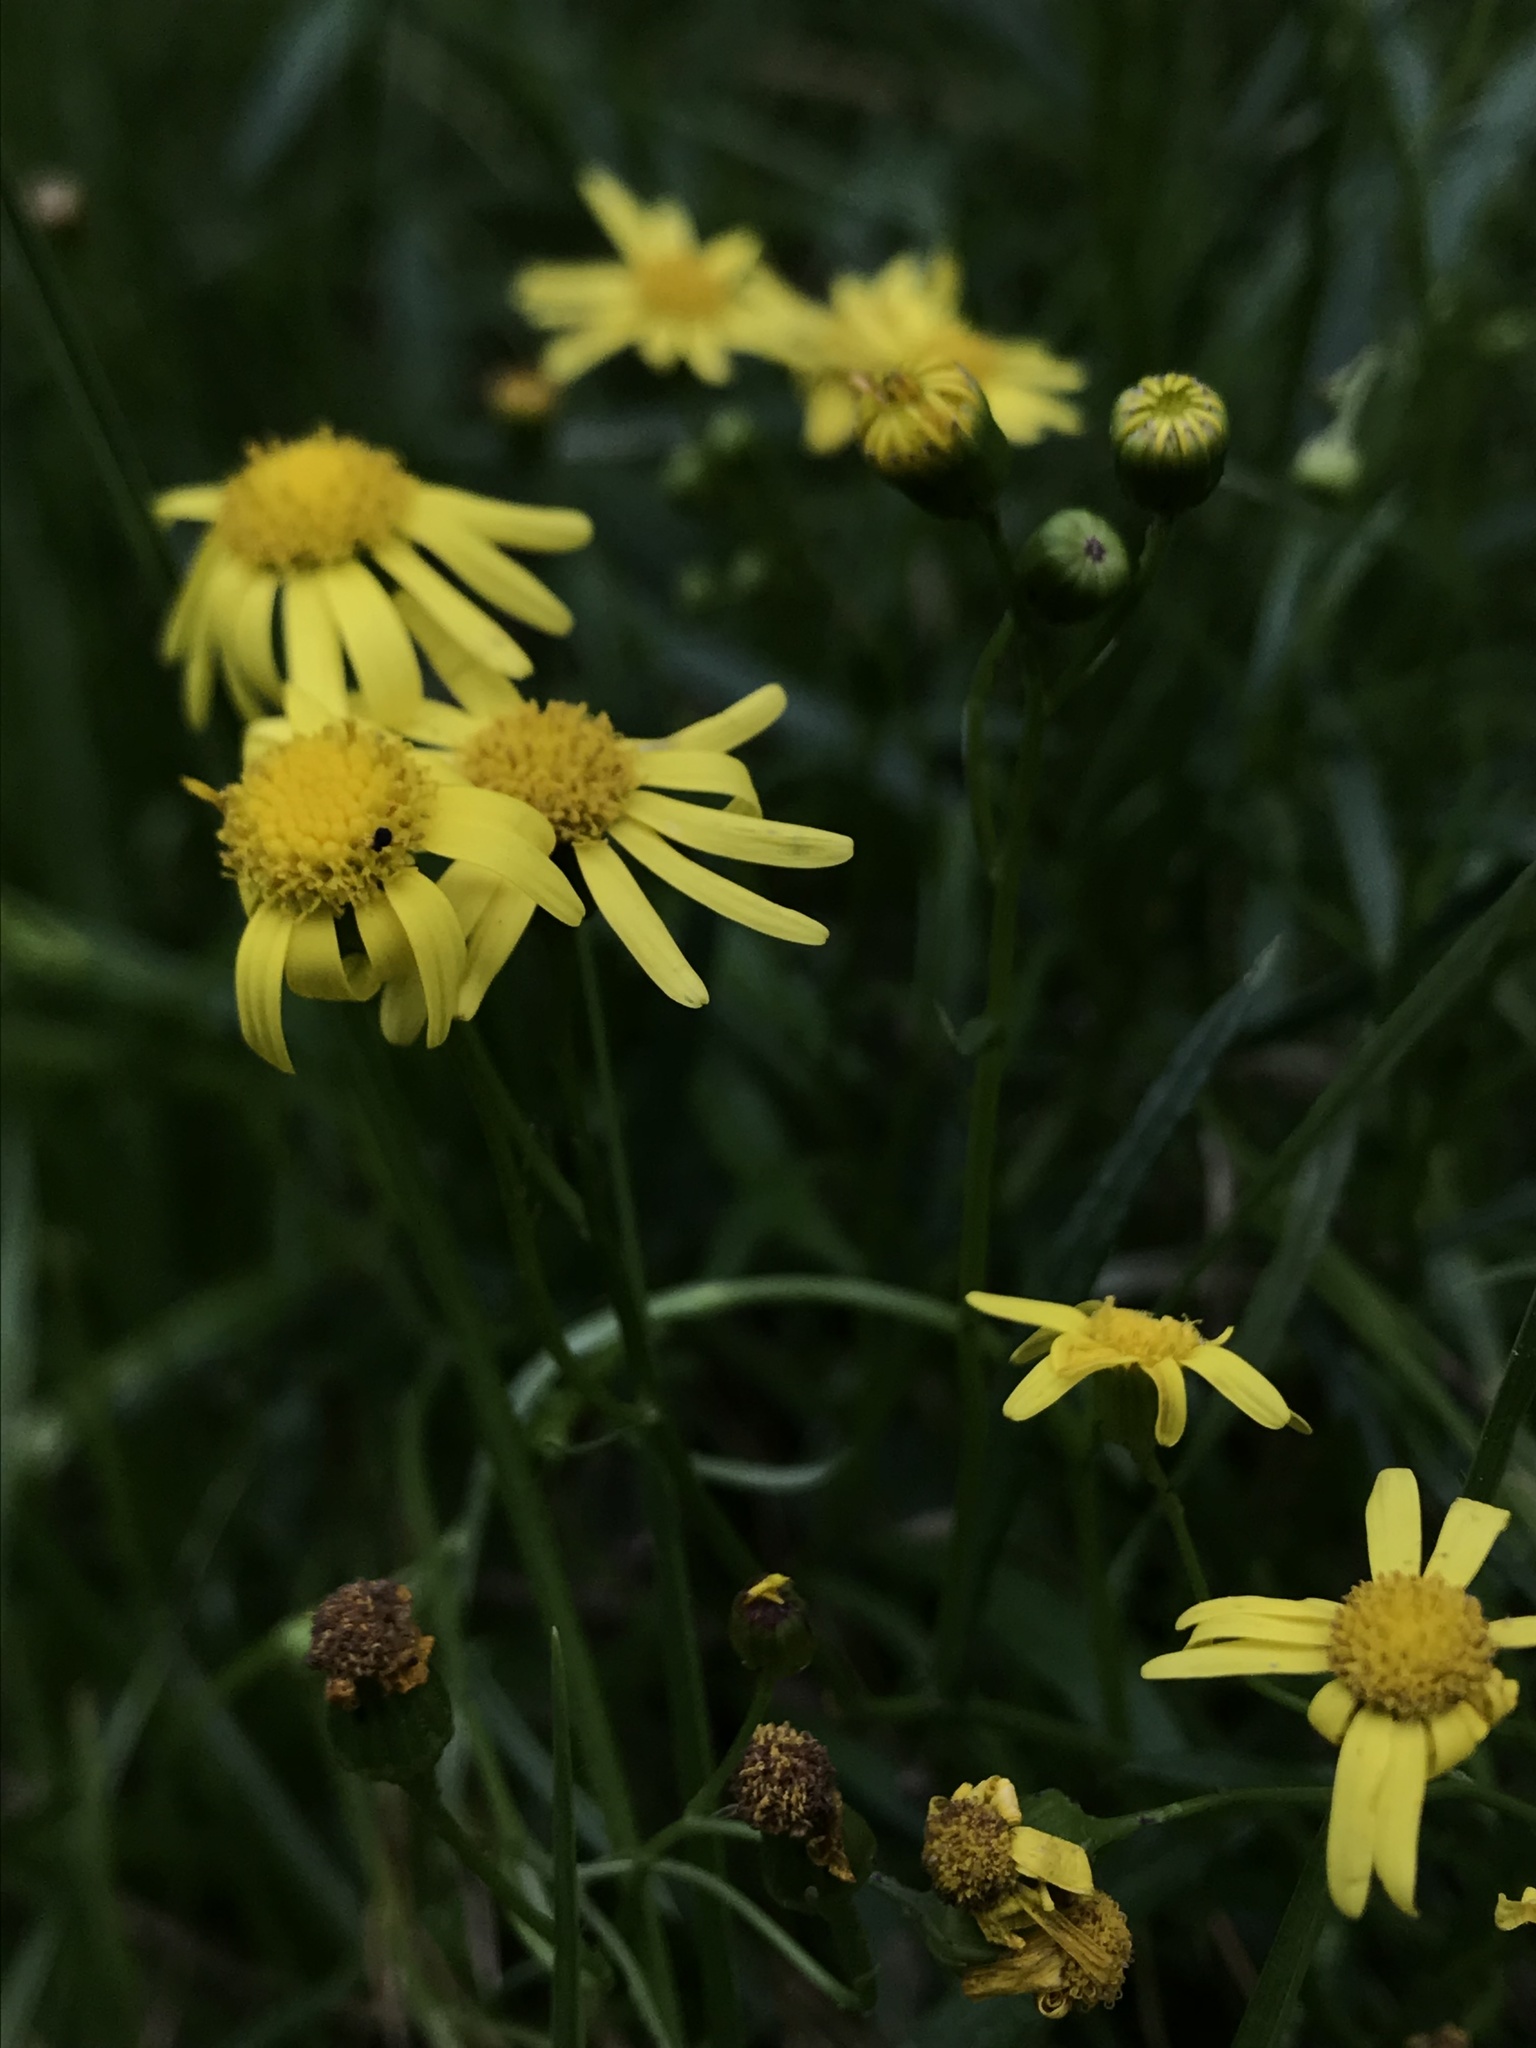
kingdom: Plantae
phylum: Tracheophyta
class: Magnoliopsida
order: Asterales
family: Asteraceae
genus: Senecio
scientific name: Senecio madagascariensis
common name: Madagascar ragwort
